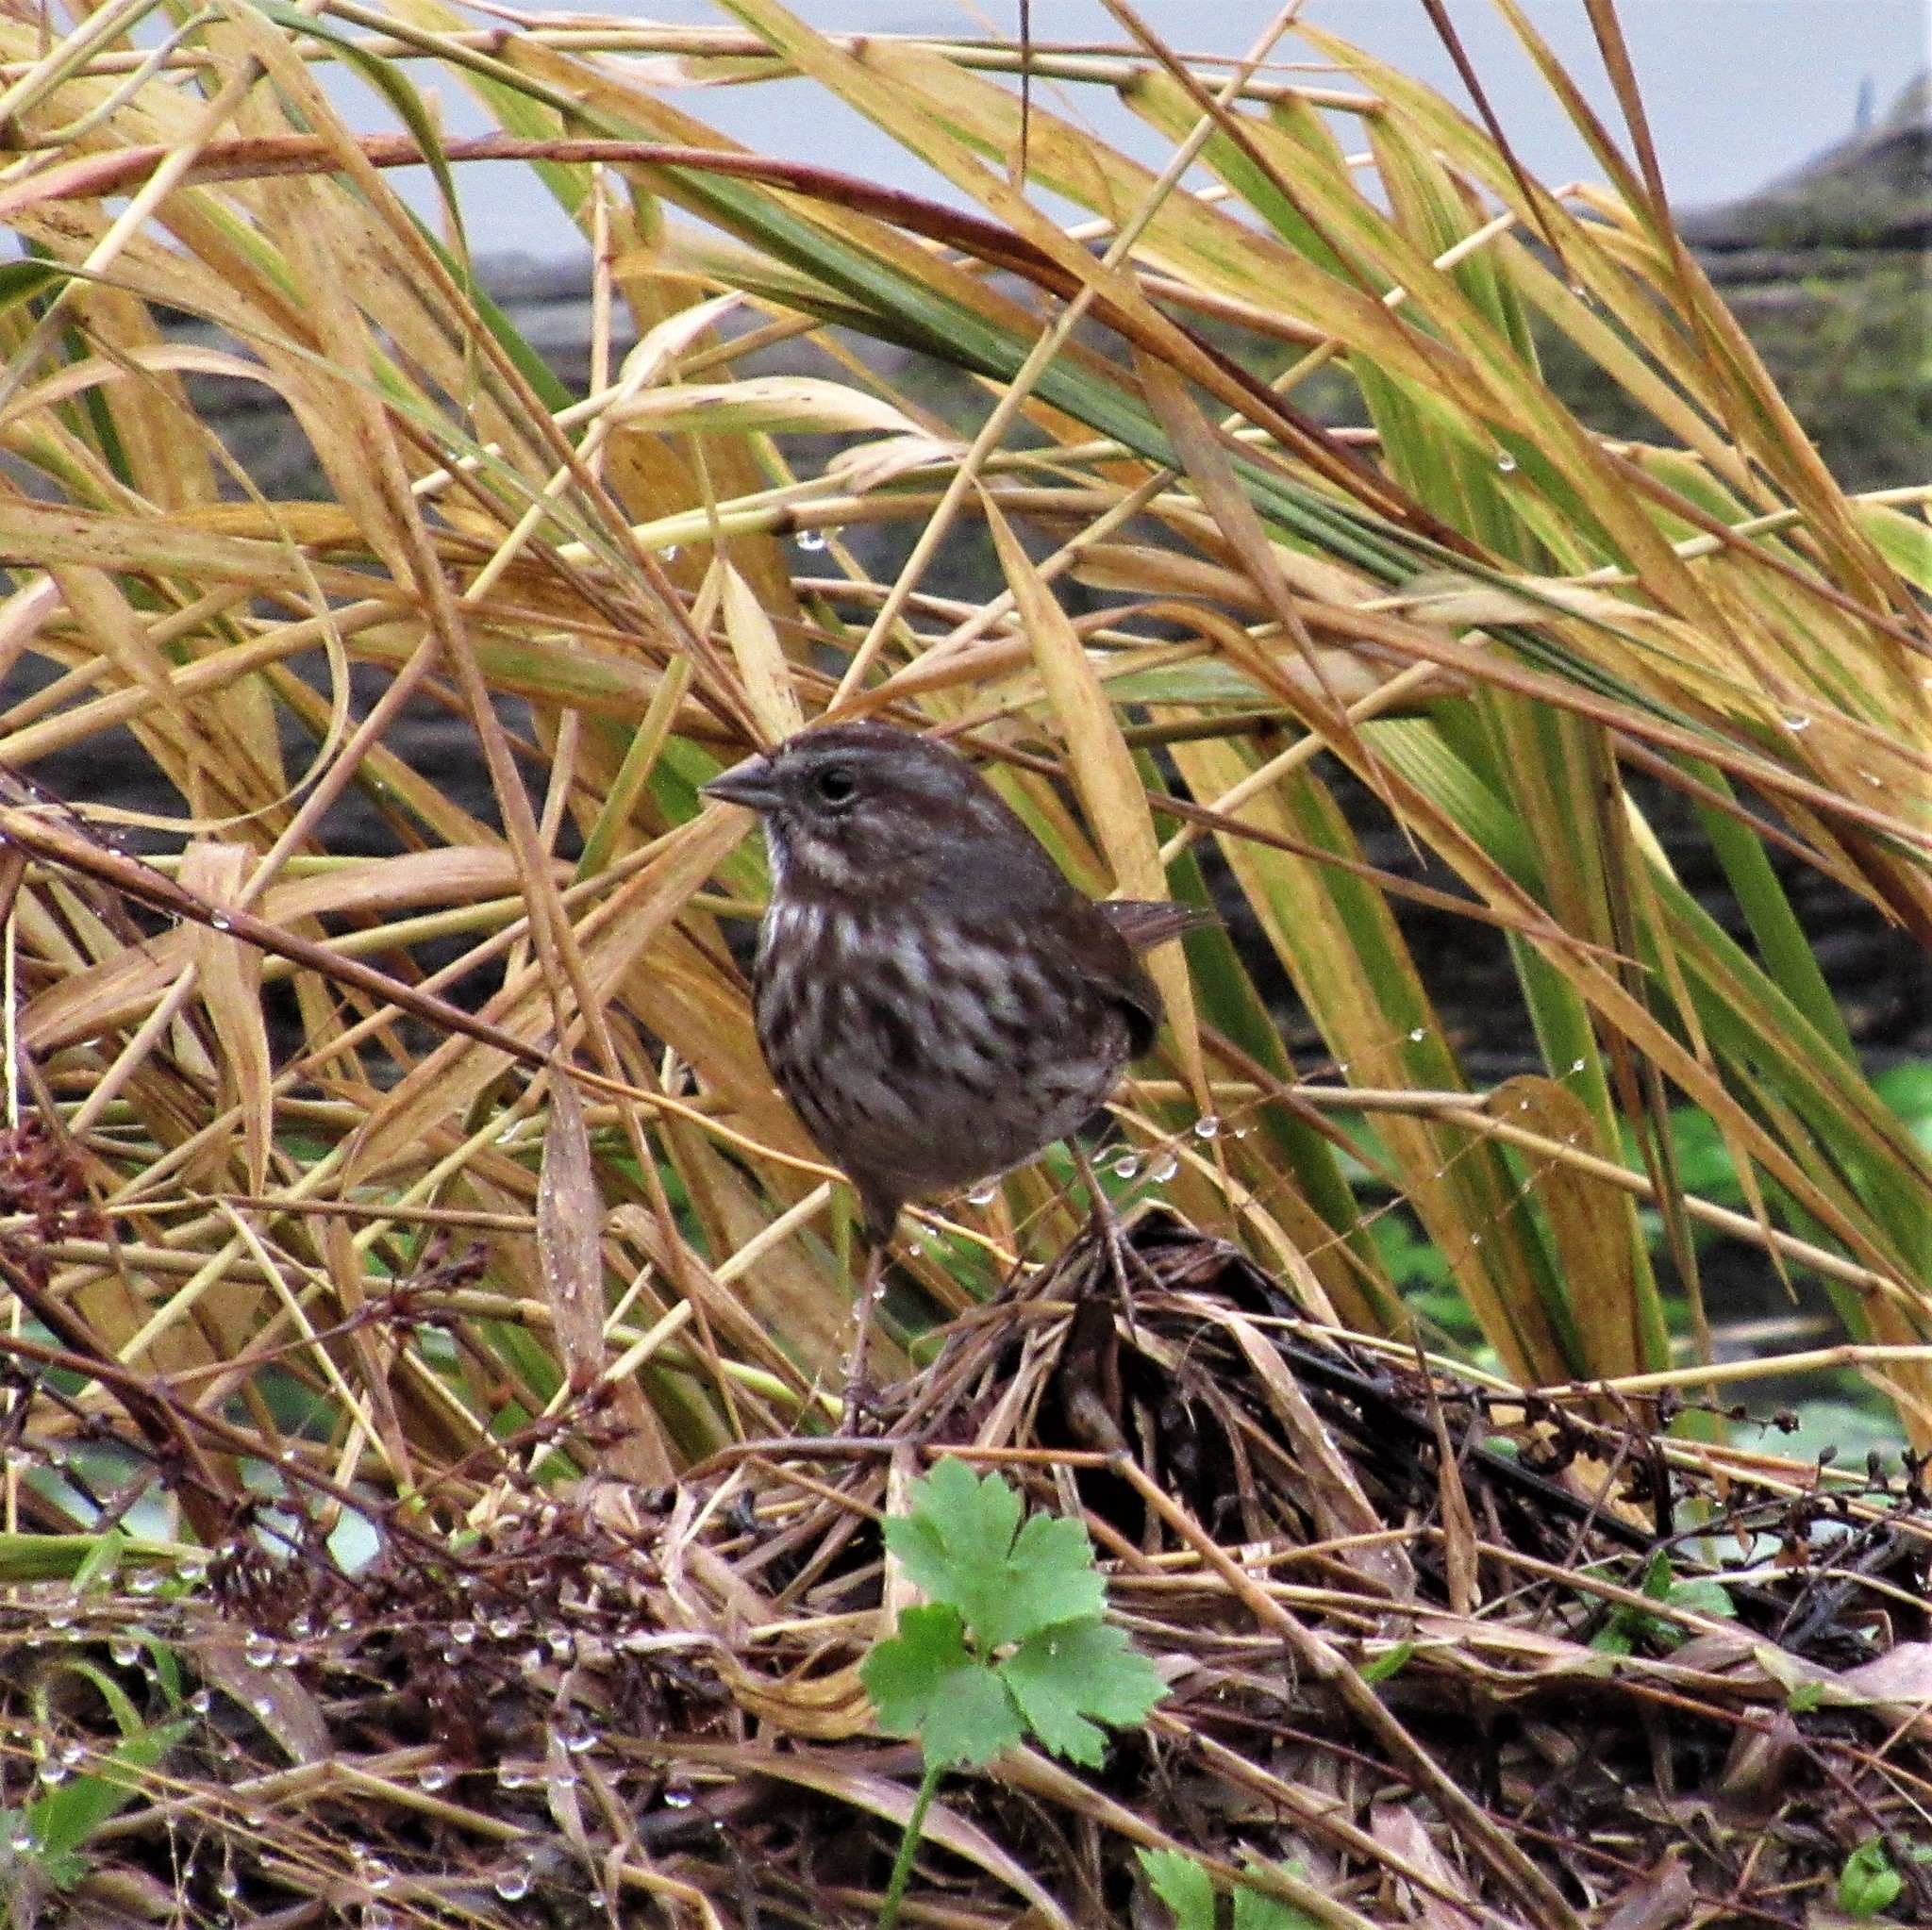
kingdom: Animalia
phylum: Chordata
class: Aves
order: Passeriformes
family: Passerellidae
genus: Melospiza
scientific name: Melospiza melodia
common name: Song sparrow
